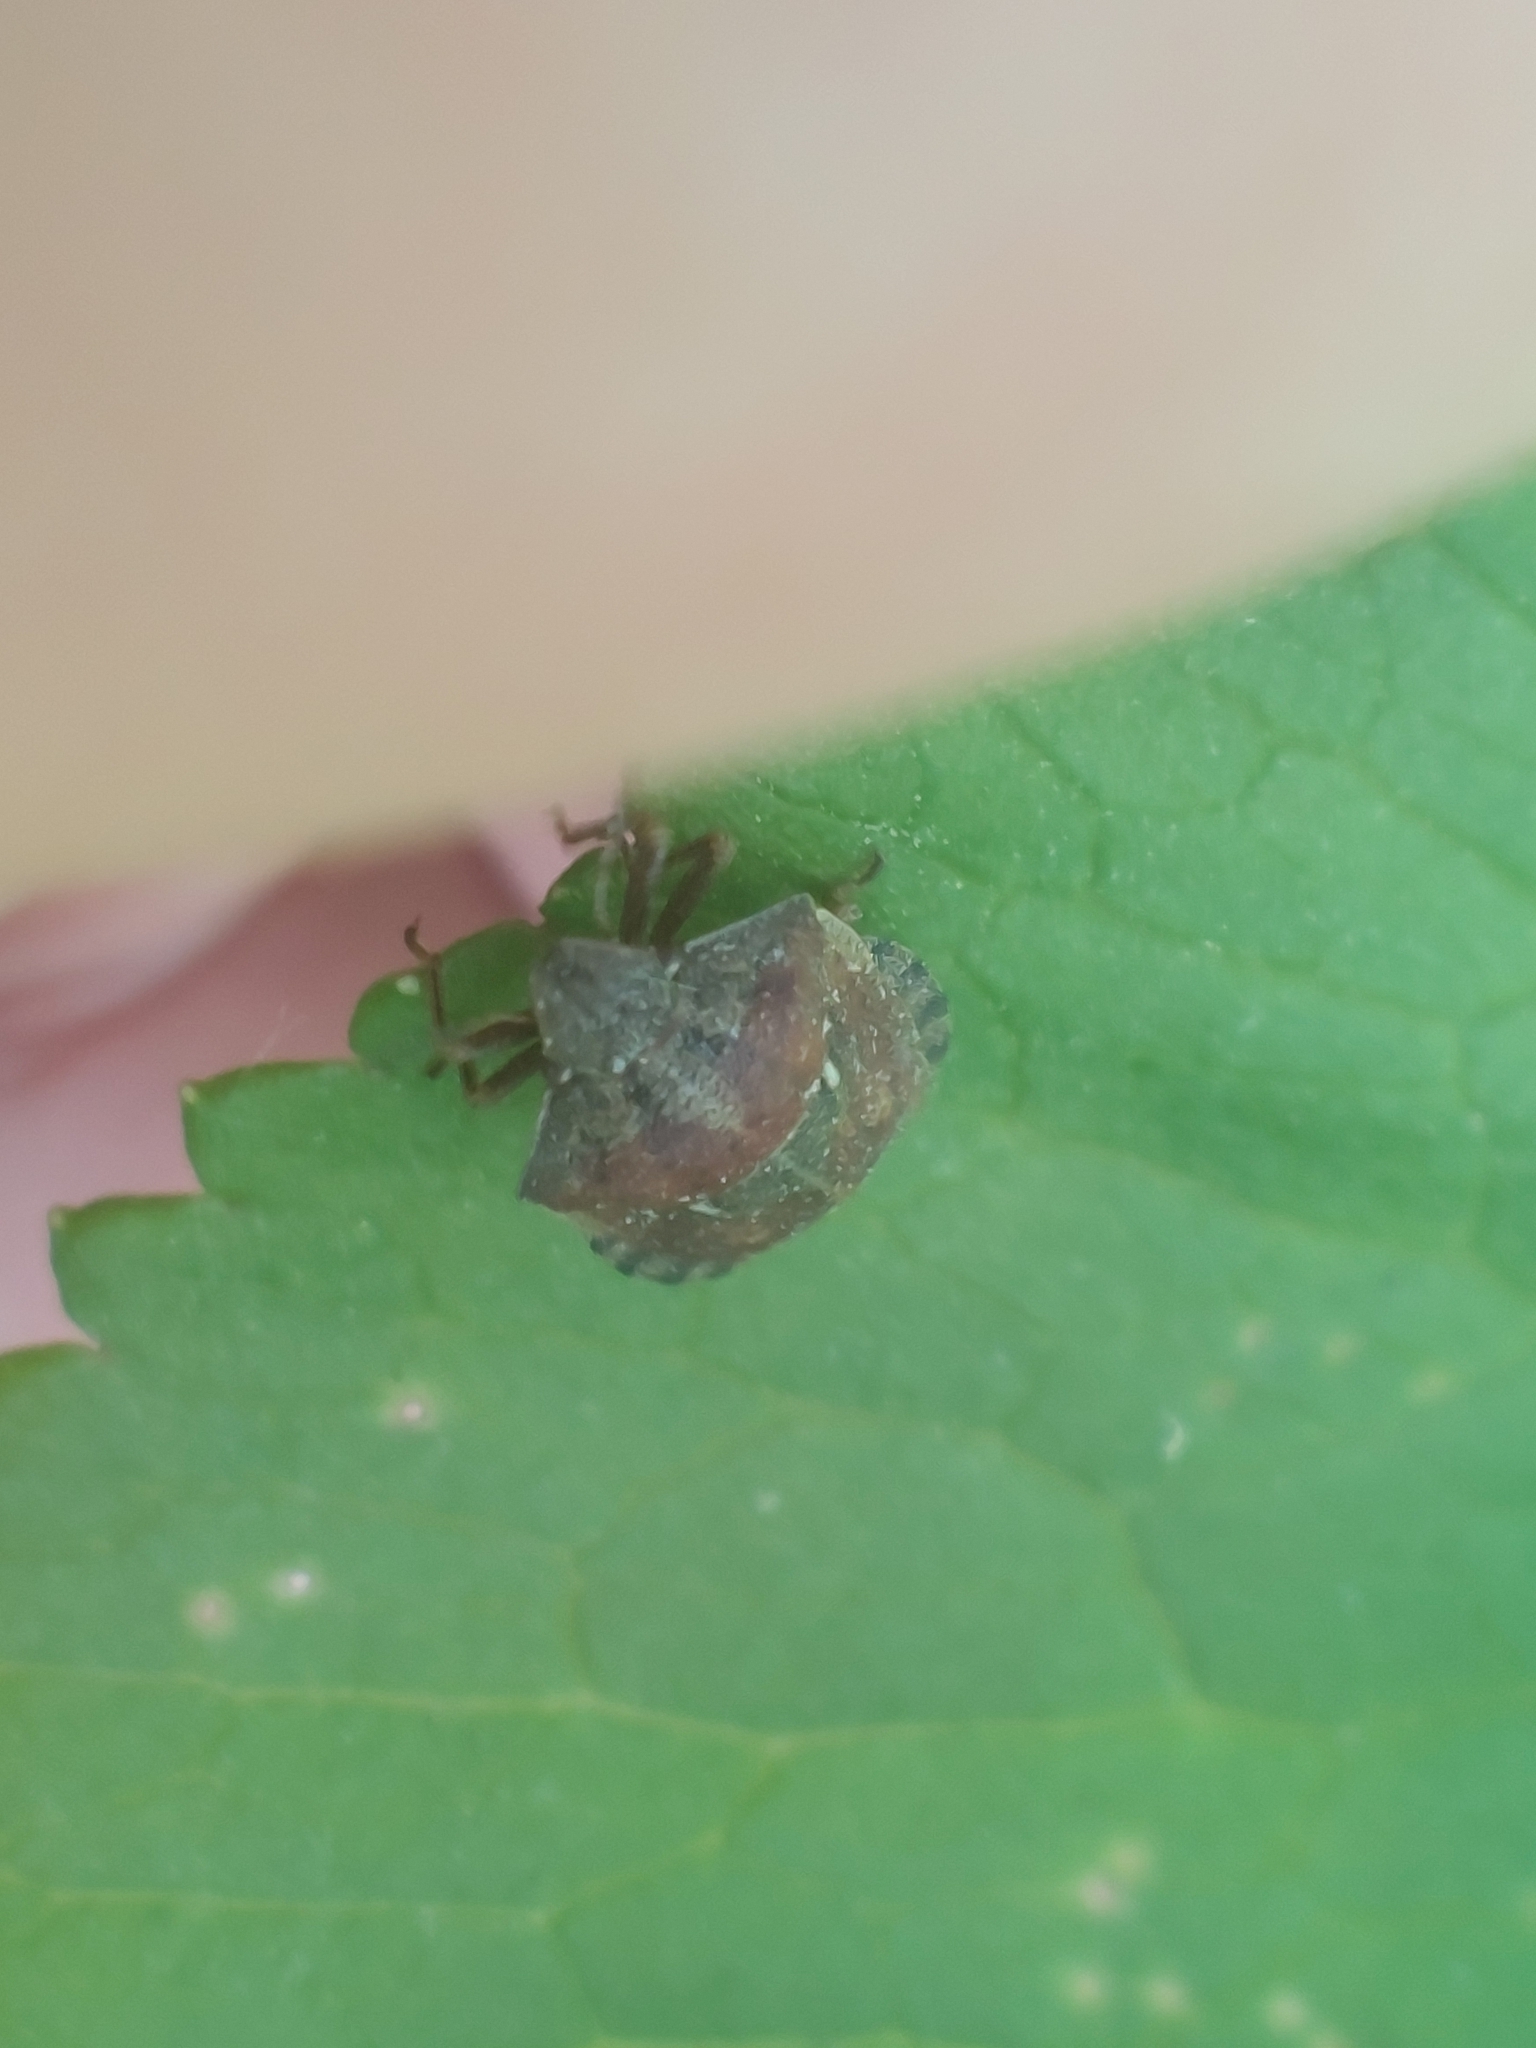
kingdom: Animalia
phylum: Arthropoda
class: Insecta
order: Hemiptera
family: Scutelleridae
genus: Eurygaster
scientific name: Eurygaster testudinaria
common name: Tortoise bug
